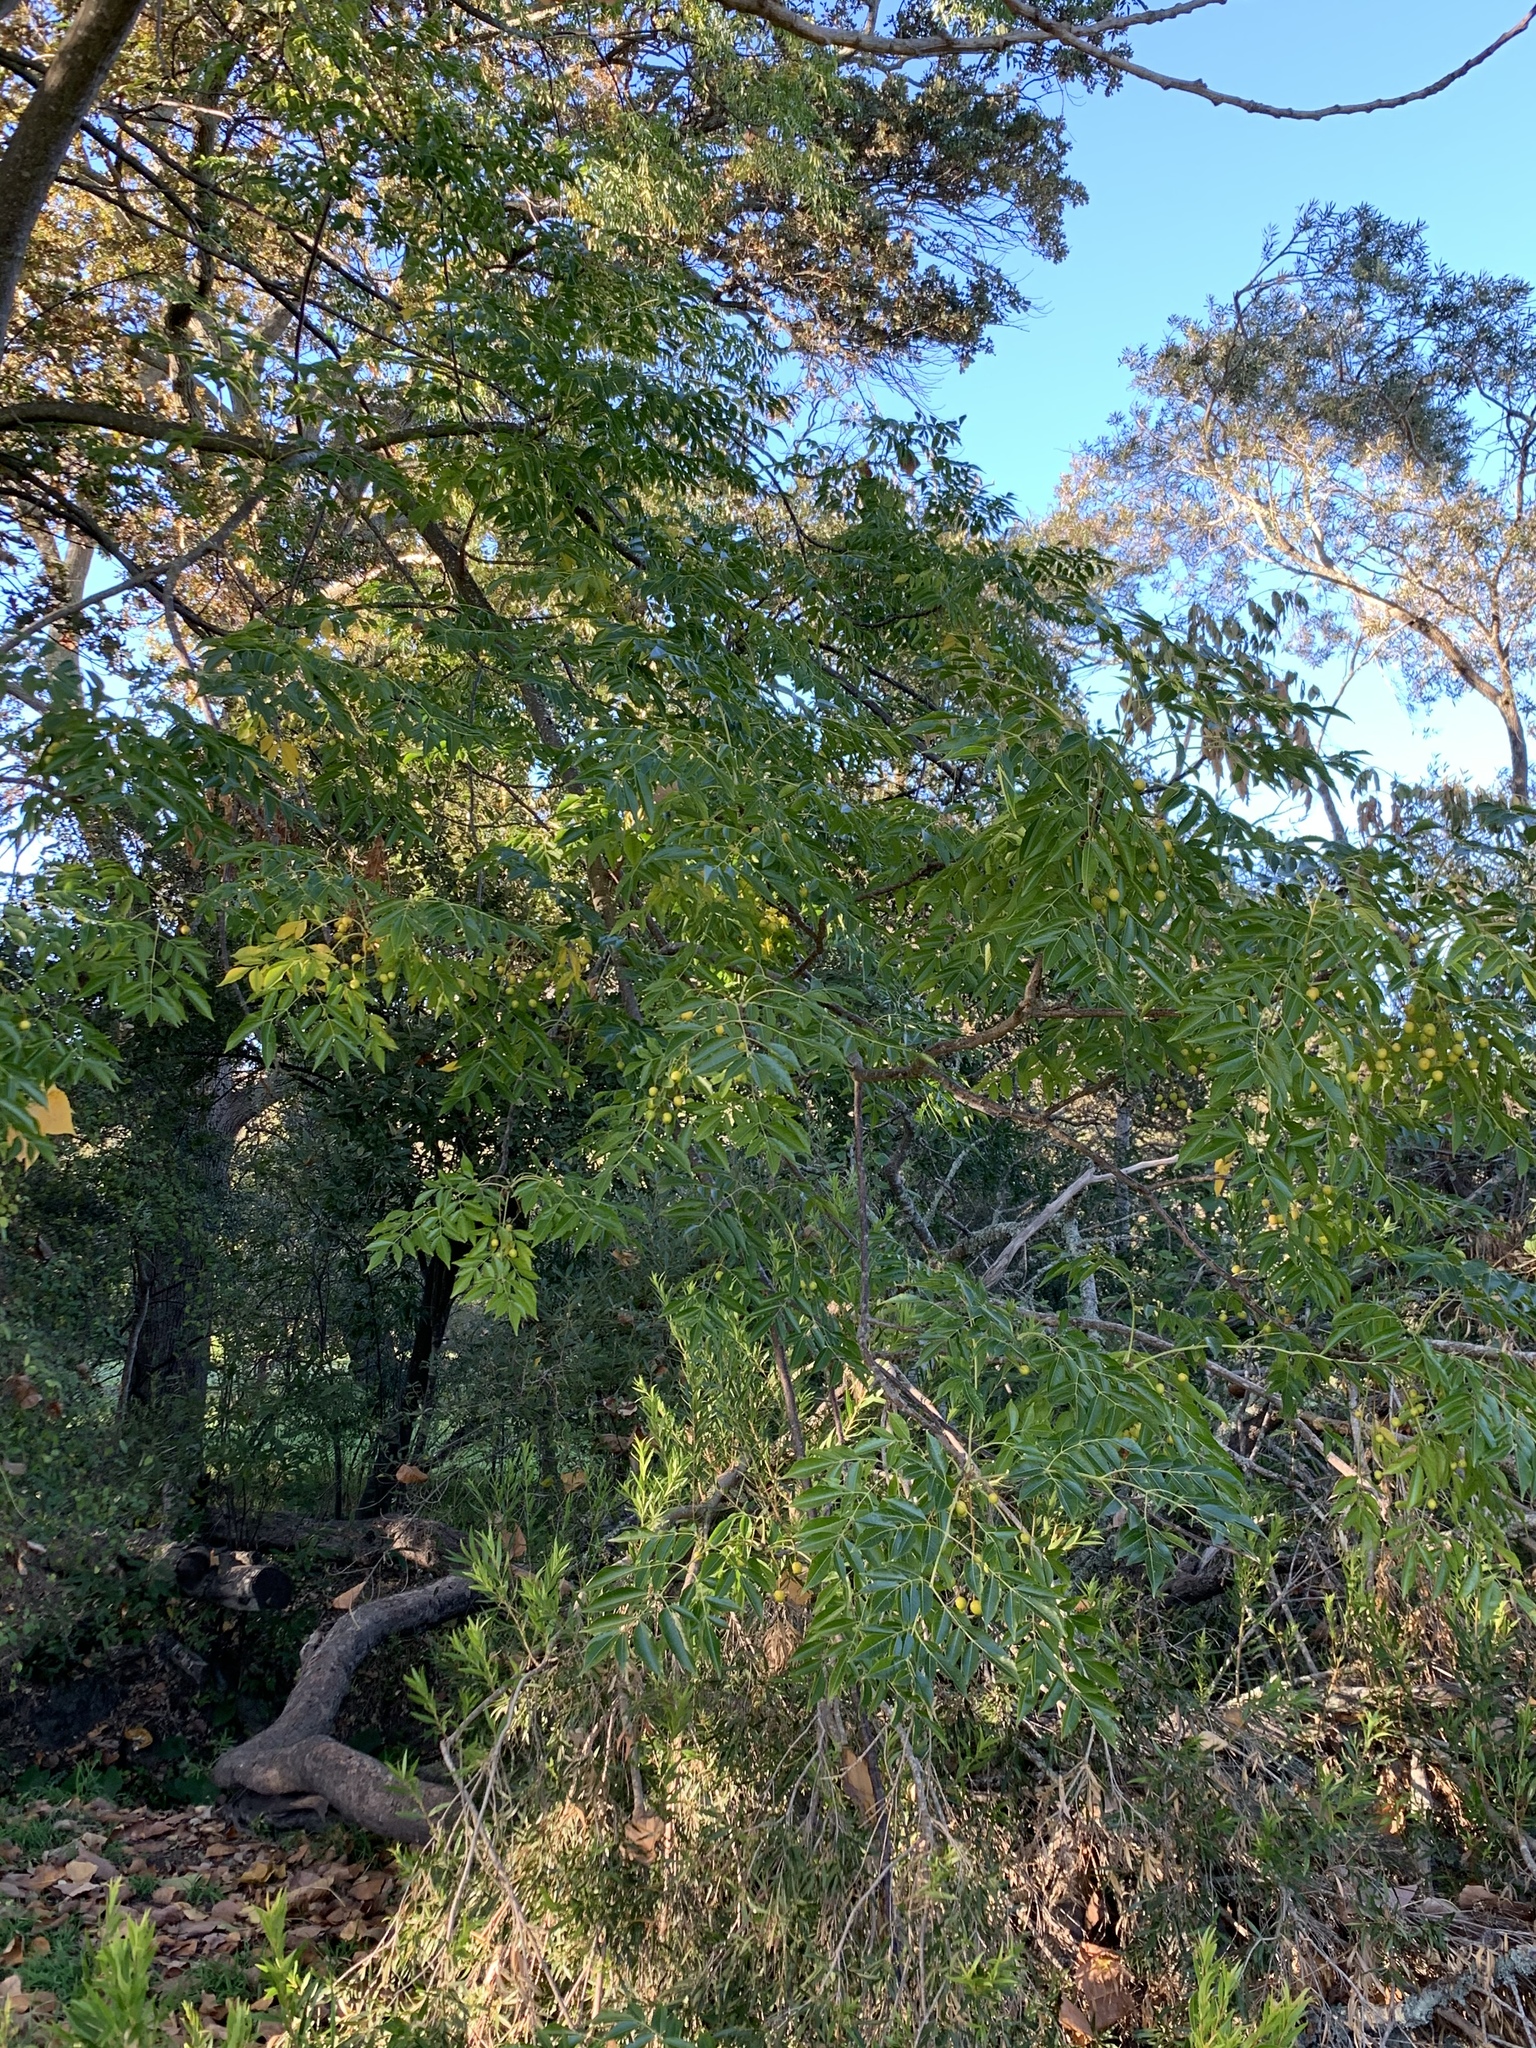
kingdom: Plantae
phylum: Tracheophyta
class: Magnoliopsida
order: Sapindales
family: Meliaceae
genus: Melia
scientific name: Melia azedarach
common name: Chinaberrytree
